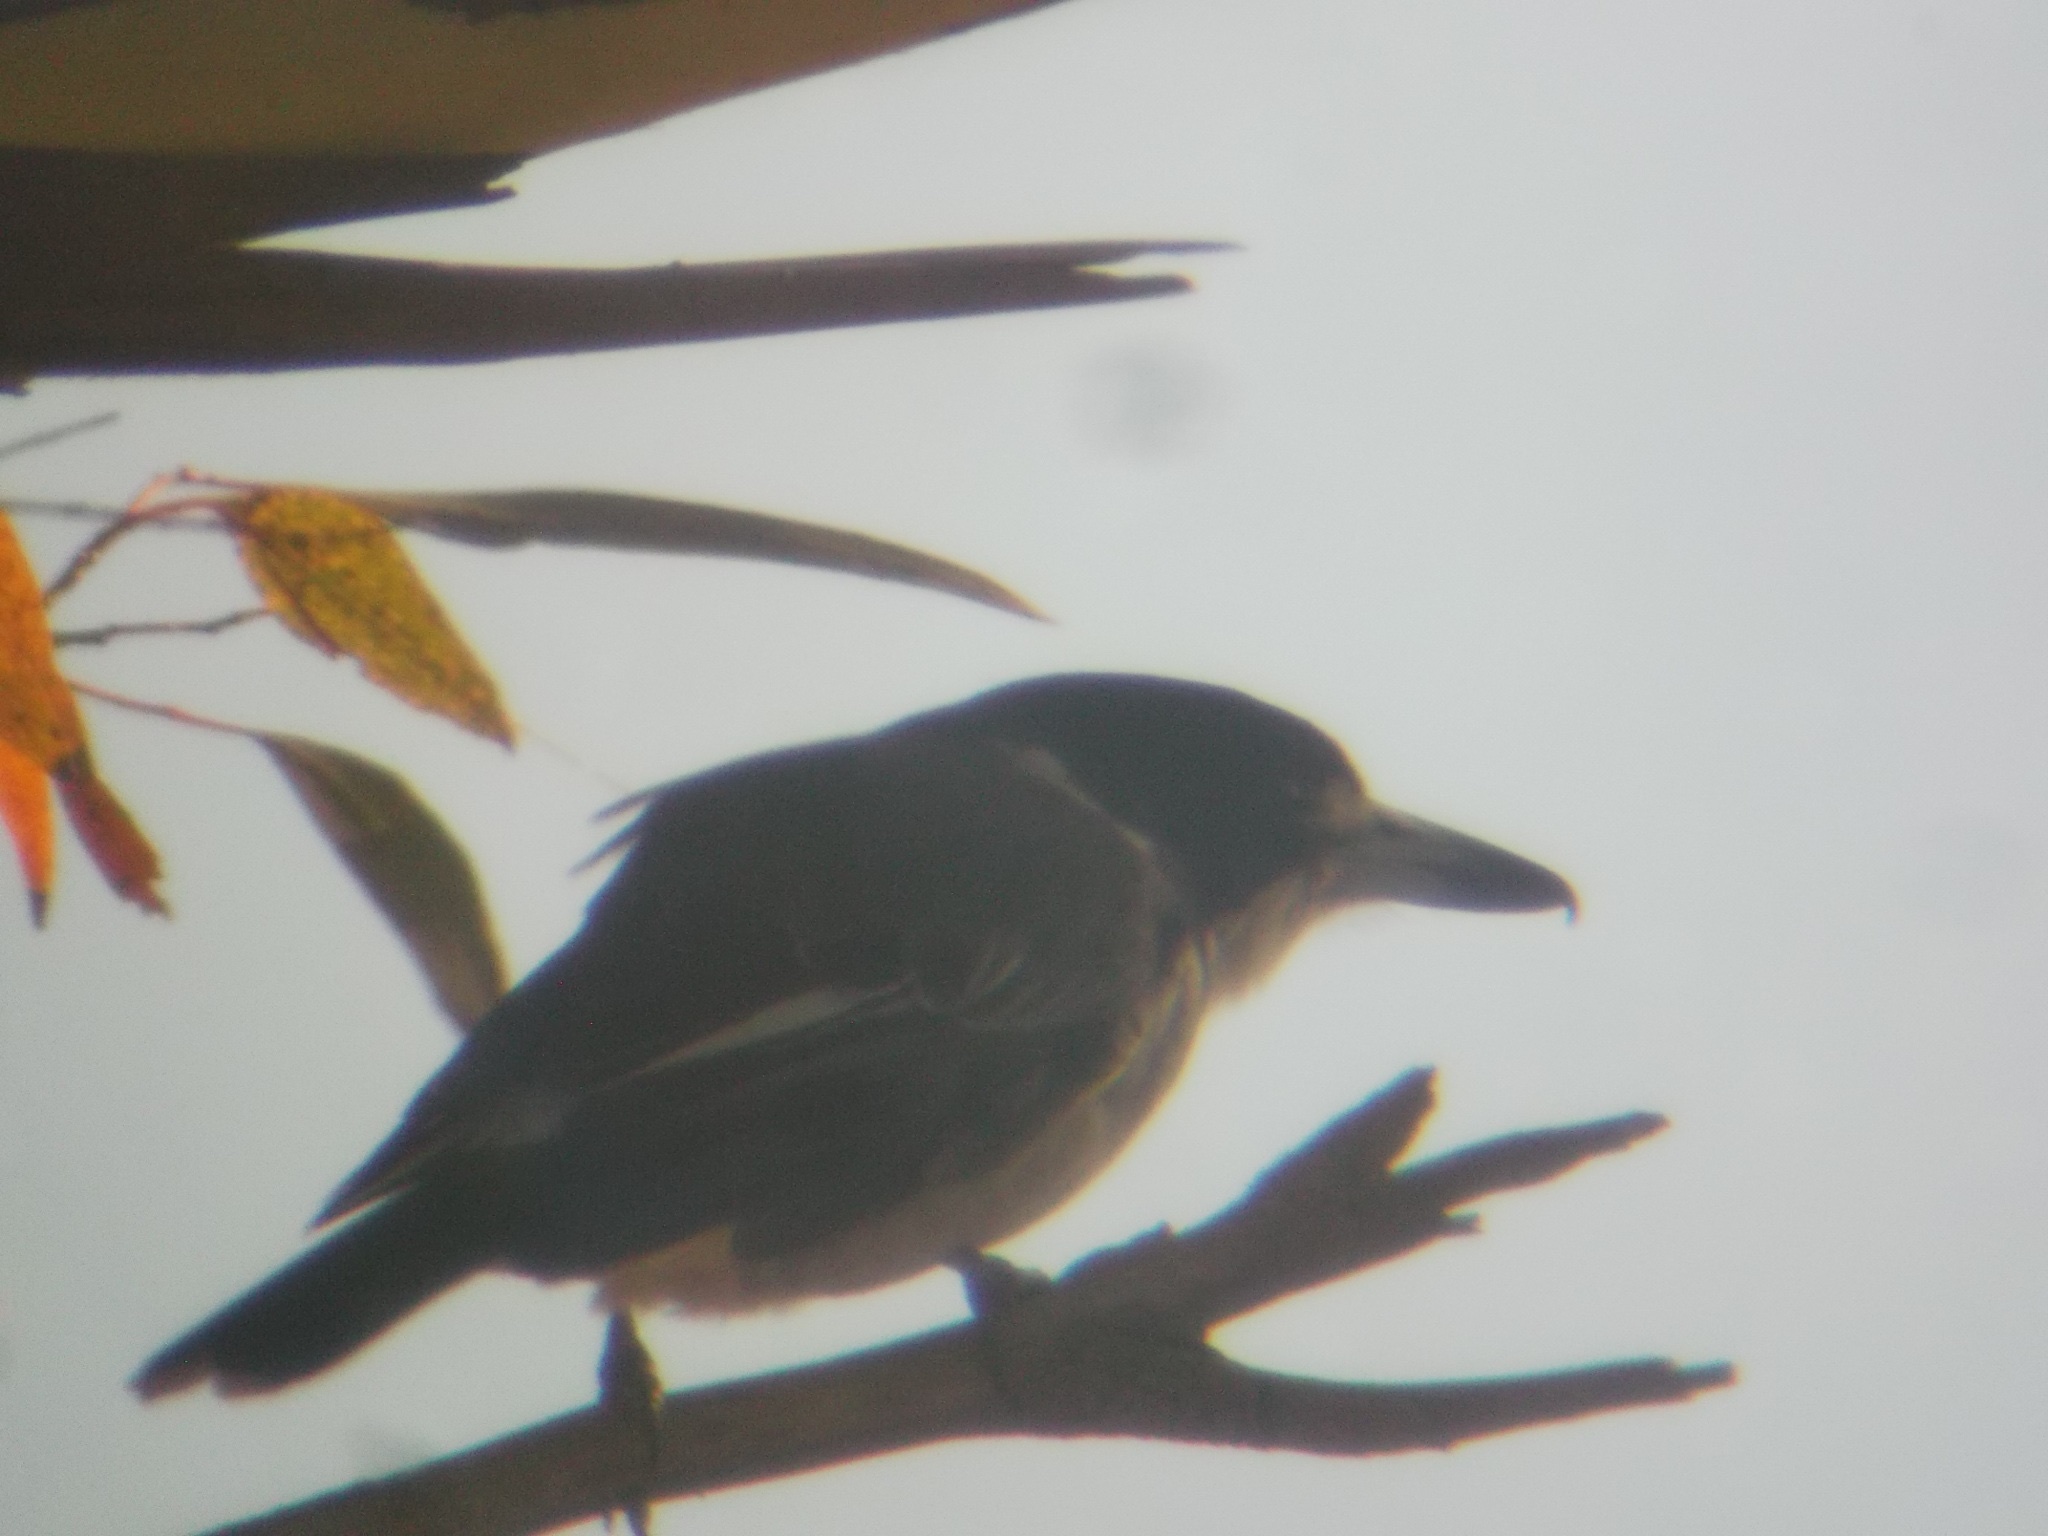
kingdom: Animalia
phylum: Chordata
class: Aves
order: Passeriformes
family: Cracticidae
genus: Cracticus
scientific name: Cracticus torquatus
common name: Grey butcherbird
